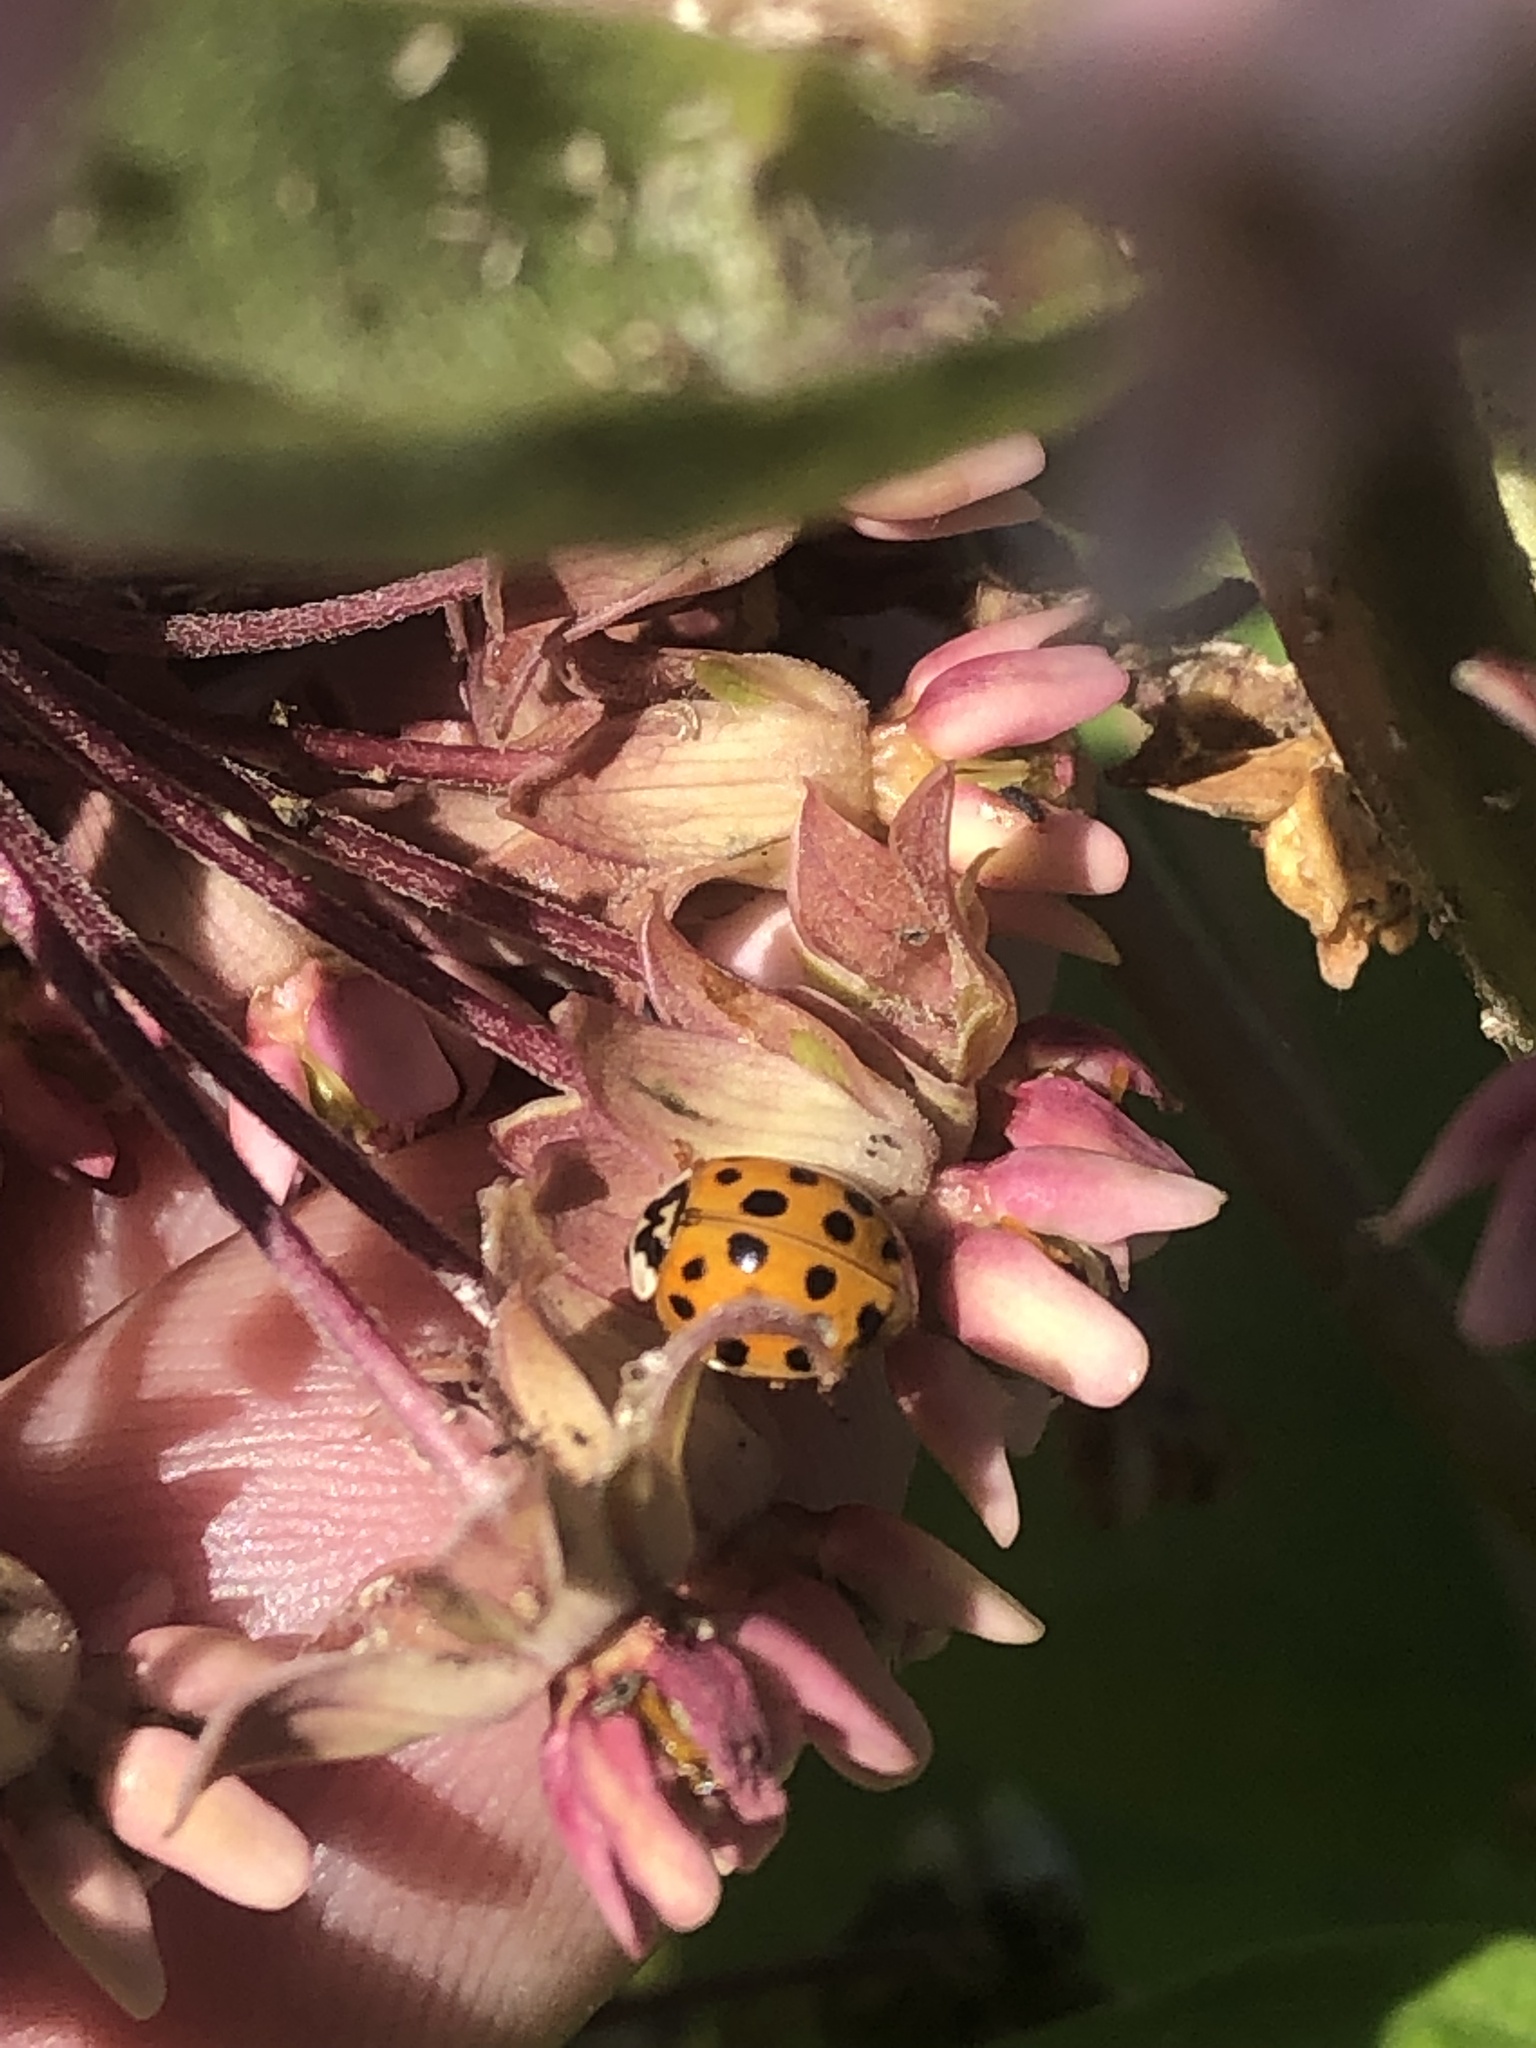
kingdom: Animalia
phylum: Arthropoda
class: Insecta
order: Coleoptera
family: Coccinellidae
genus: Harmonia
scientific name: Harmonia axyridis
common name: Harlequin ladybird
